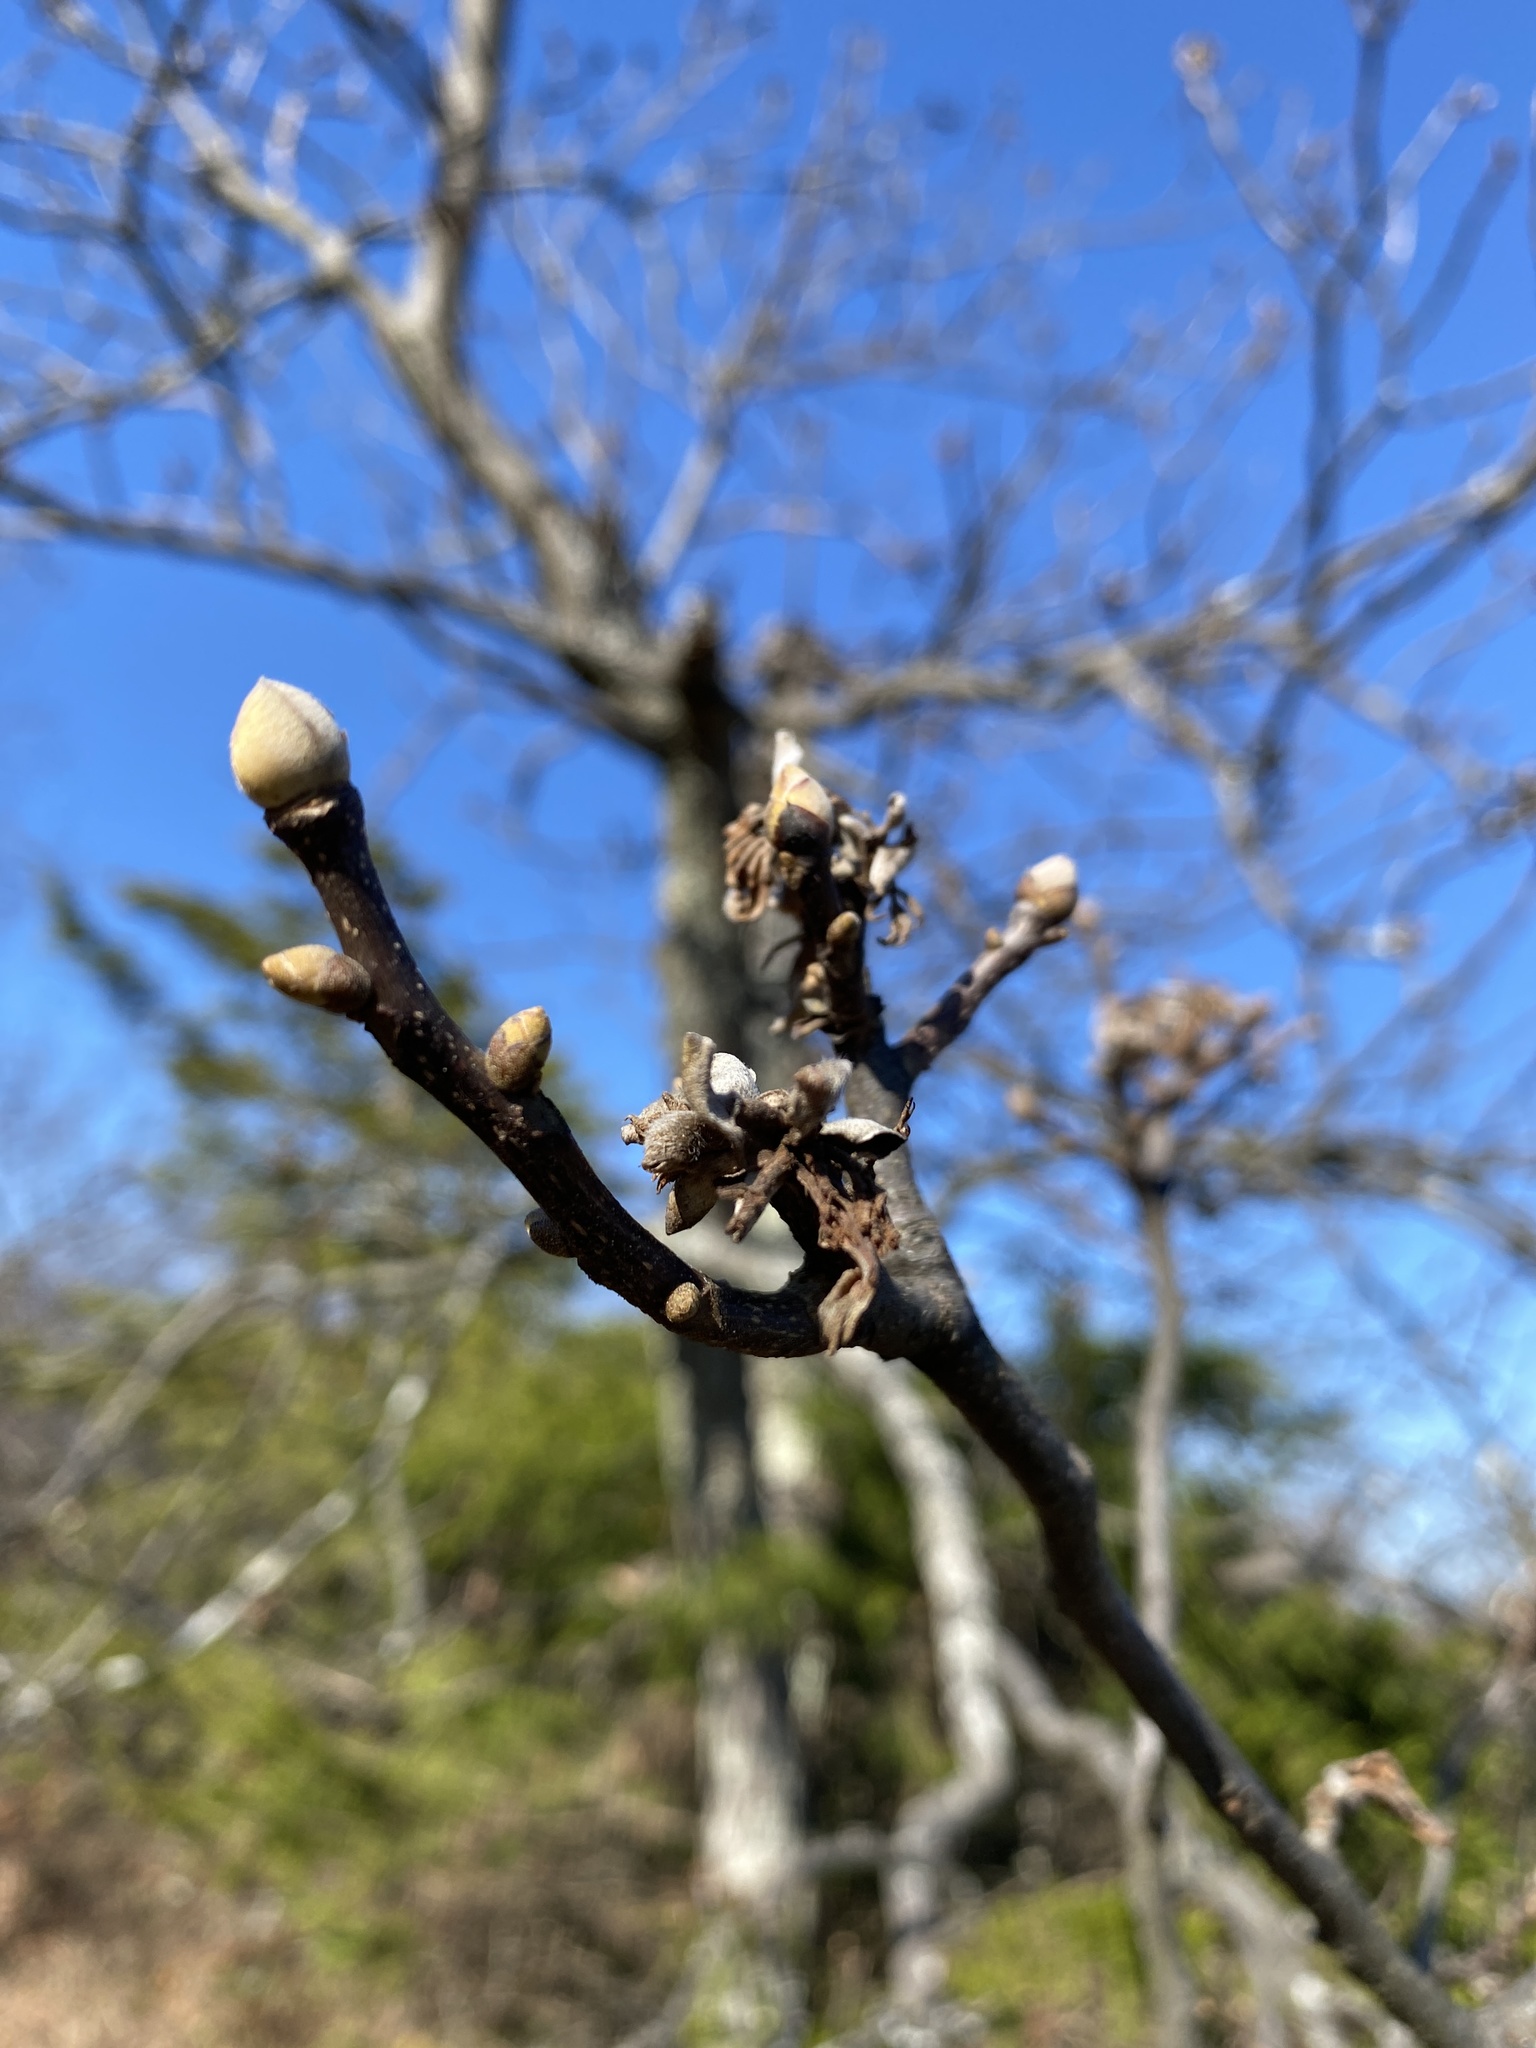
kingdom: Plantae
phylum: Tracheophyta
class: Magnoliopsida
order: Fagales
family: Juglandaceae
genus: Carya
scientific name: Carya glabra
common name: Pignut hickory
